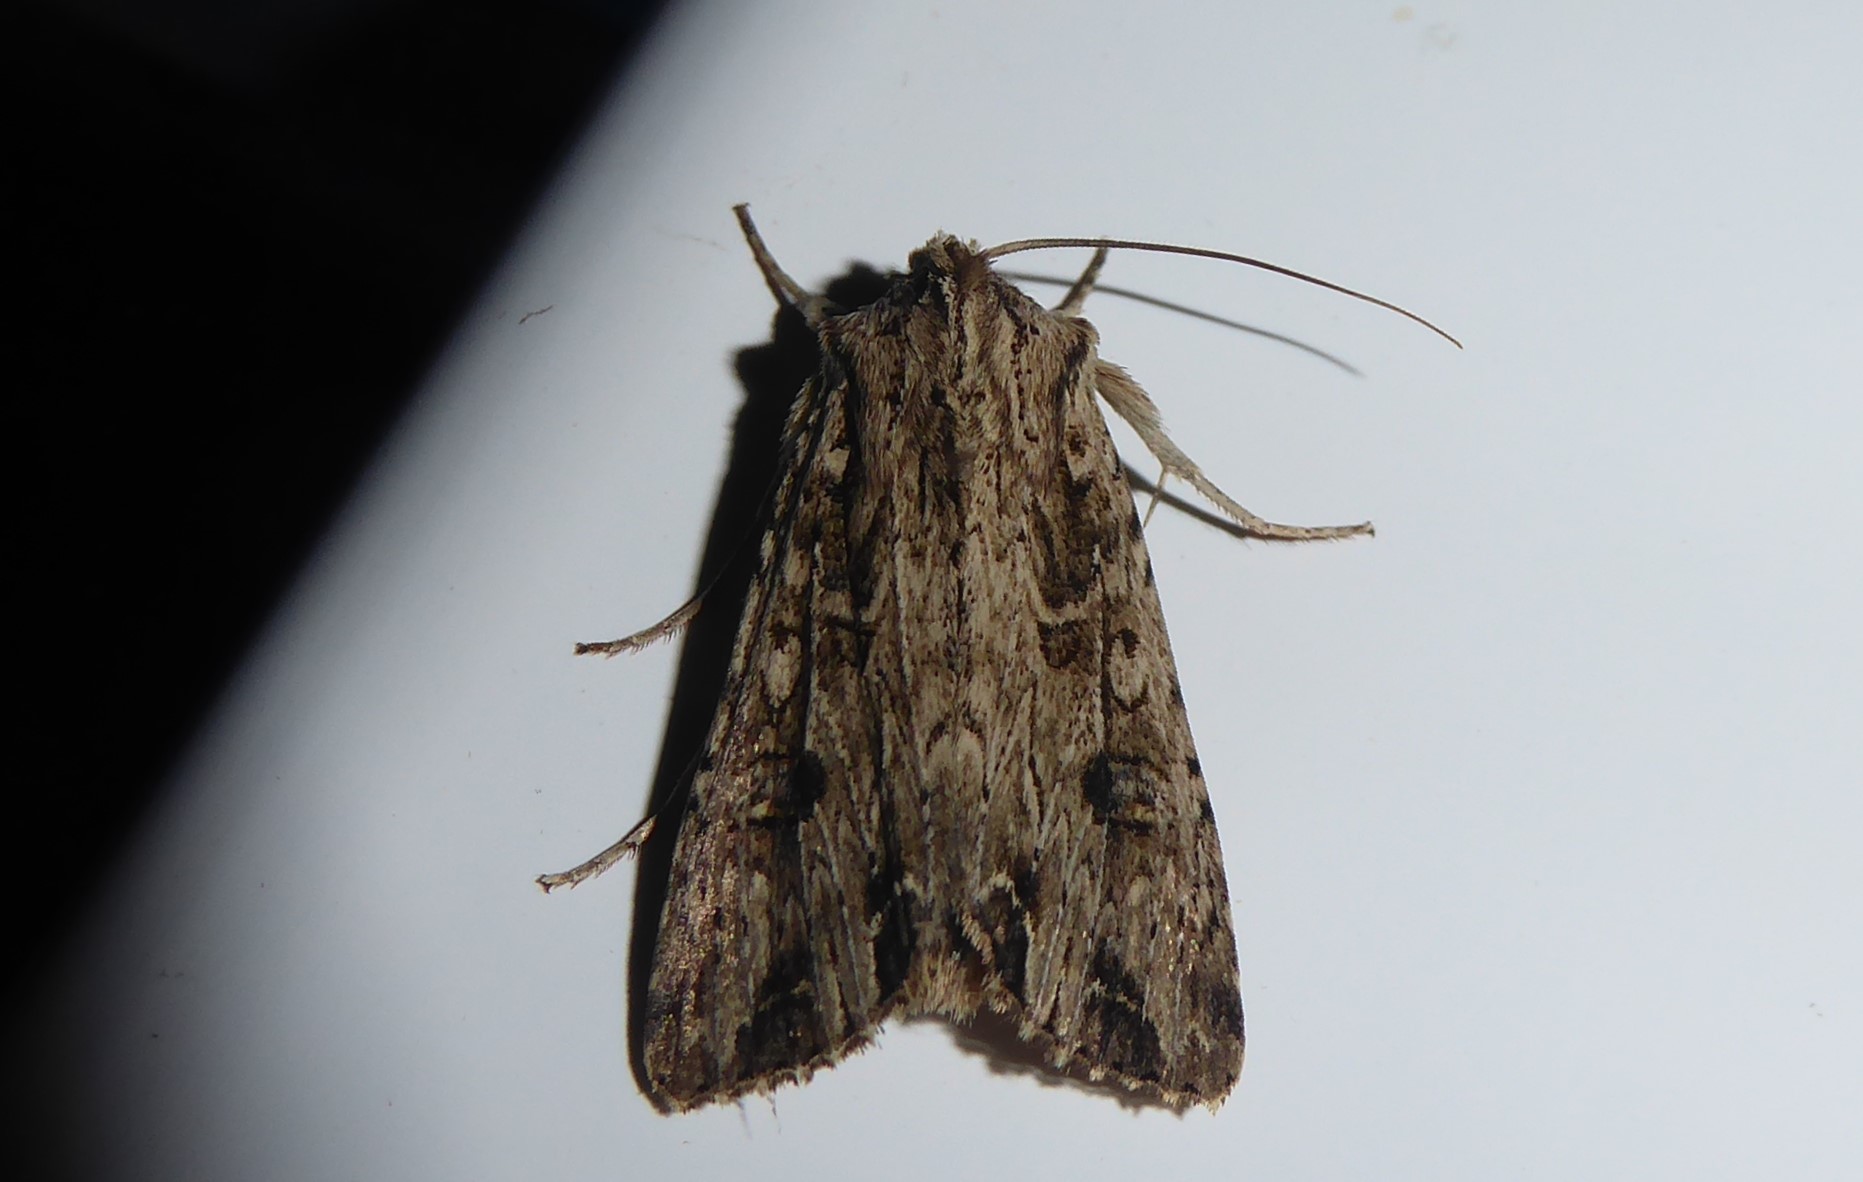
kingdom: Animalia
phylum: Arthropoda
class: Insecta
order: Lepidoptera
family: Noctuidae
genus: Ichneutica
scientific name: Ichneutica lignana
